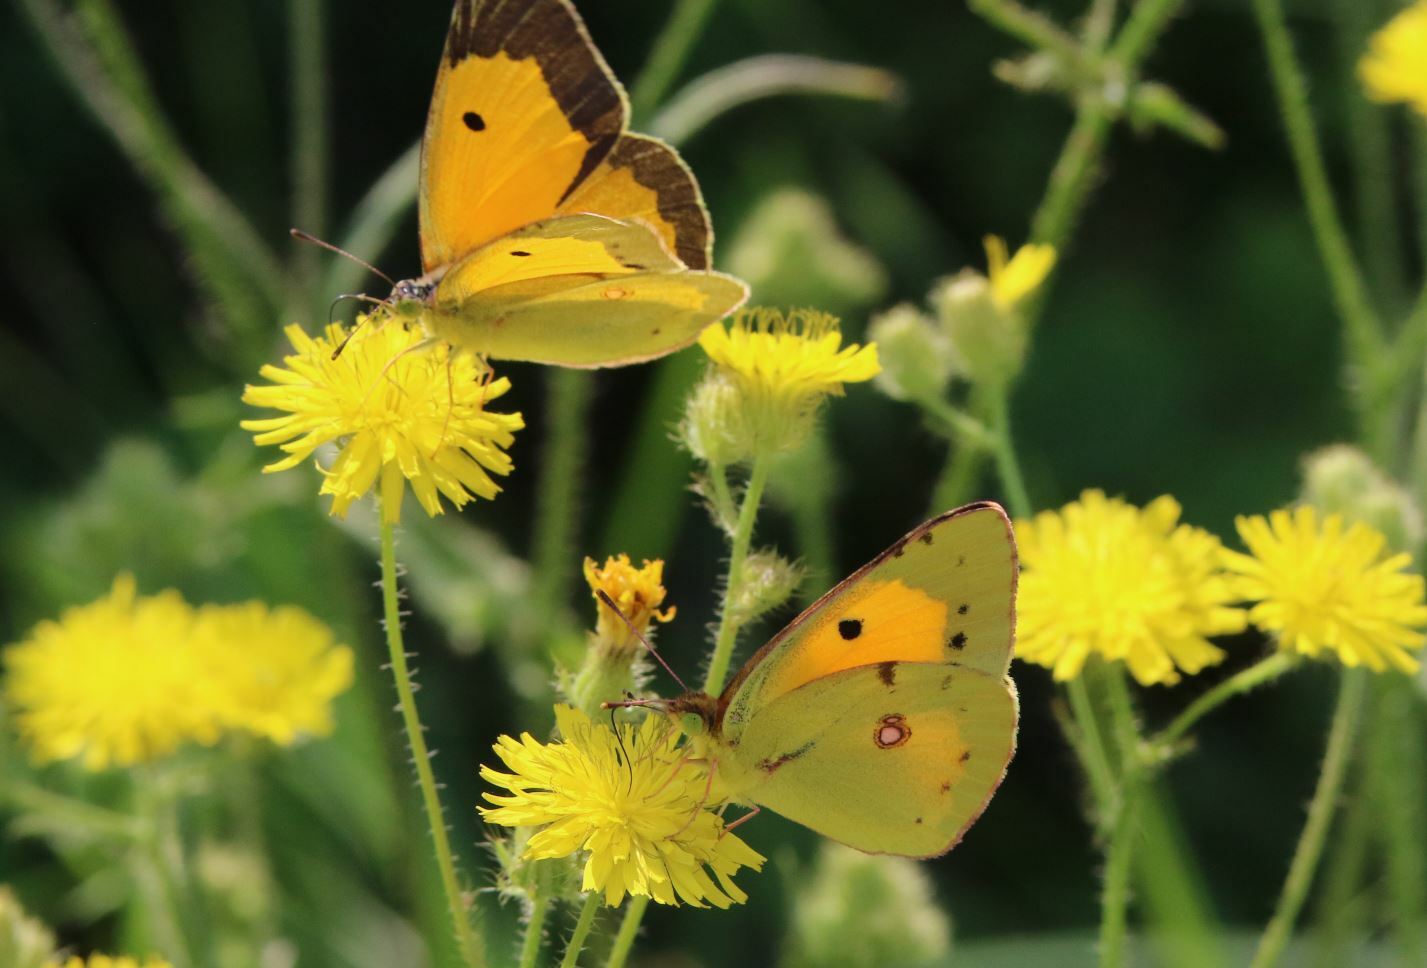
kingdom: Animalia
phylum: Arthropoda
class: Insecta
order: Lepidoptera
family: Pieridae
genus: Colias
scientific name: Colias croceus
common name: Clouded yellow
